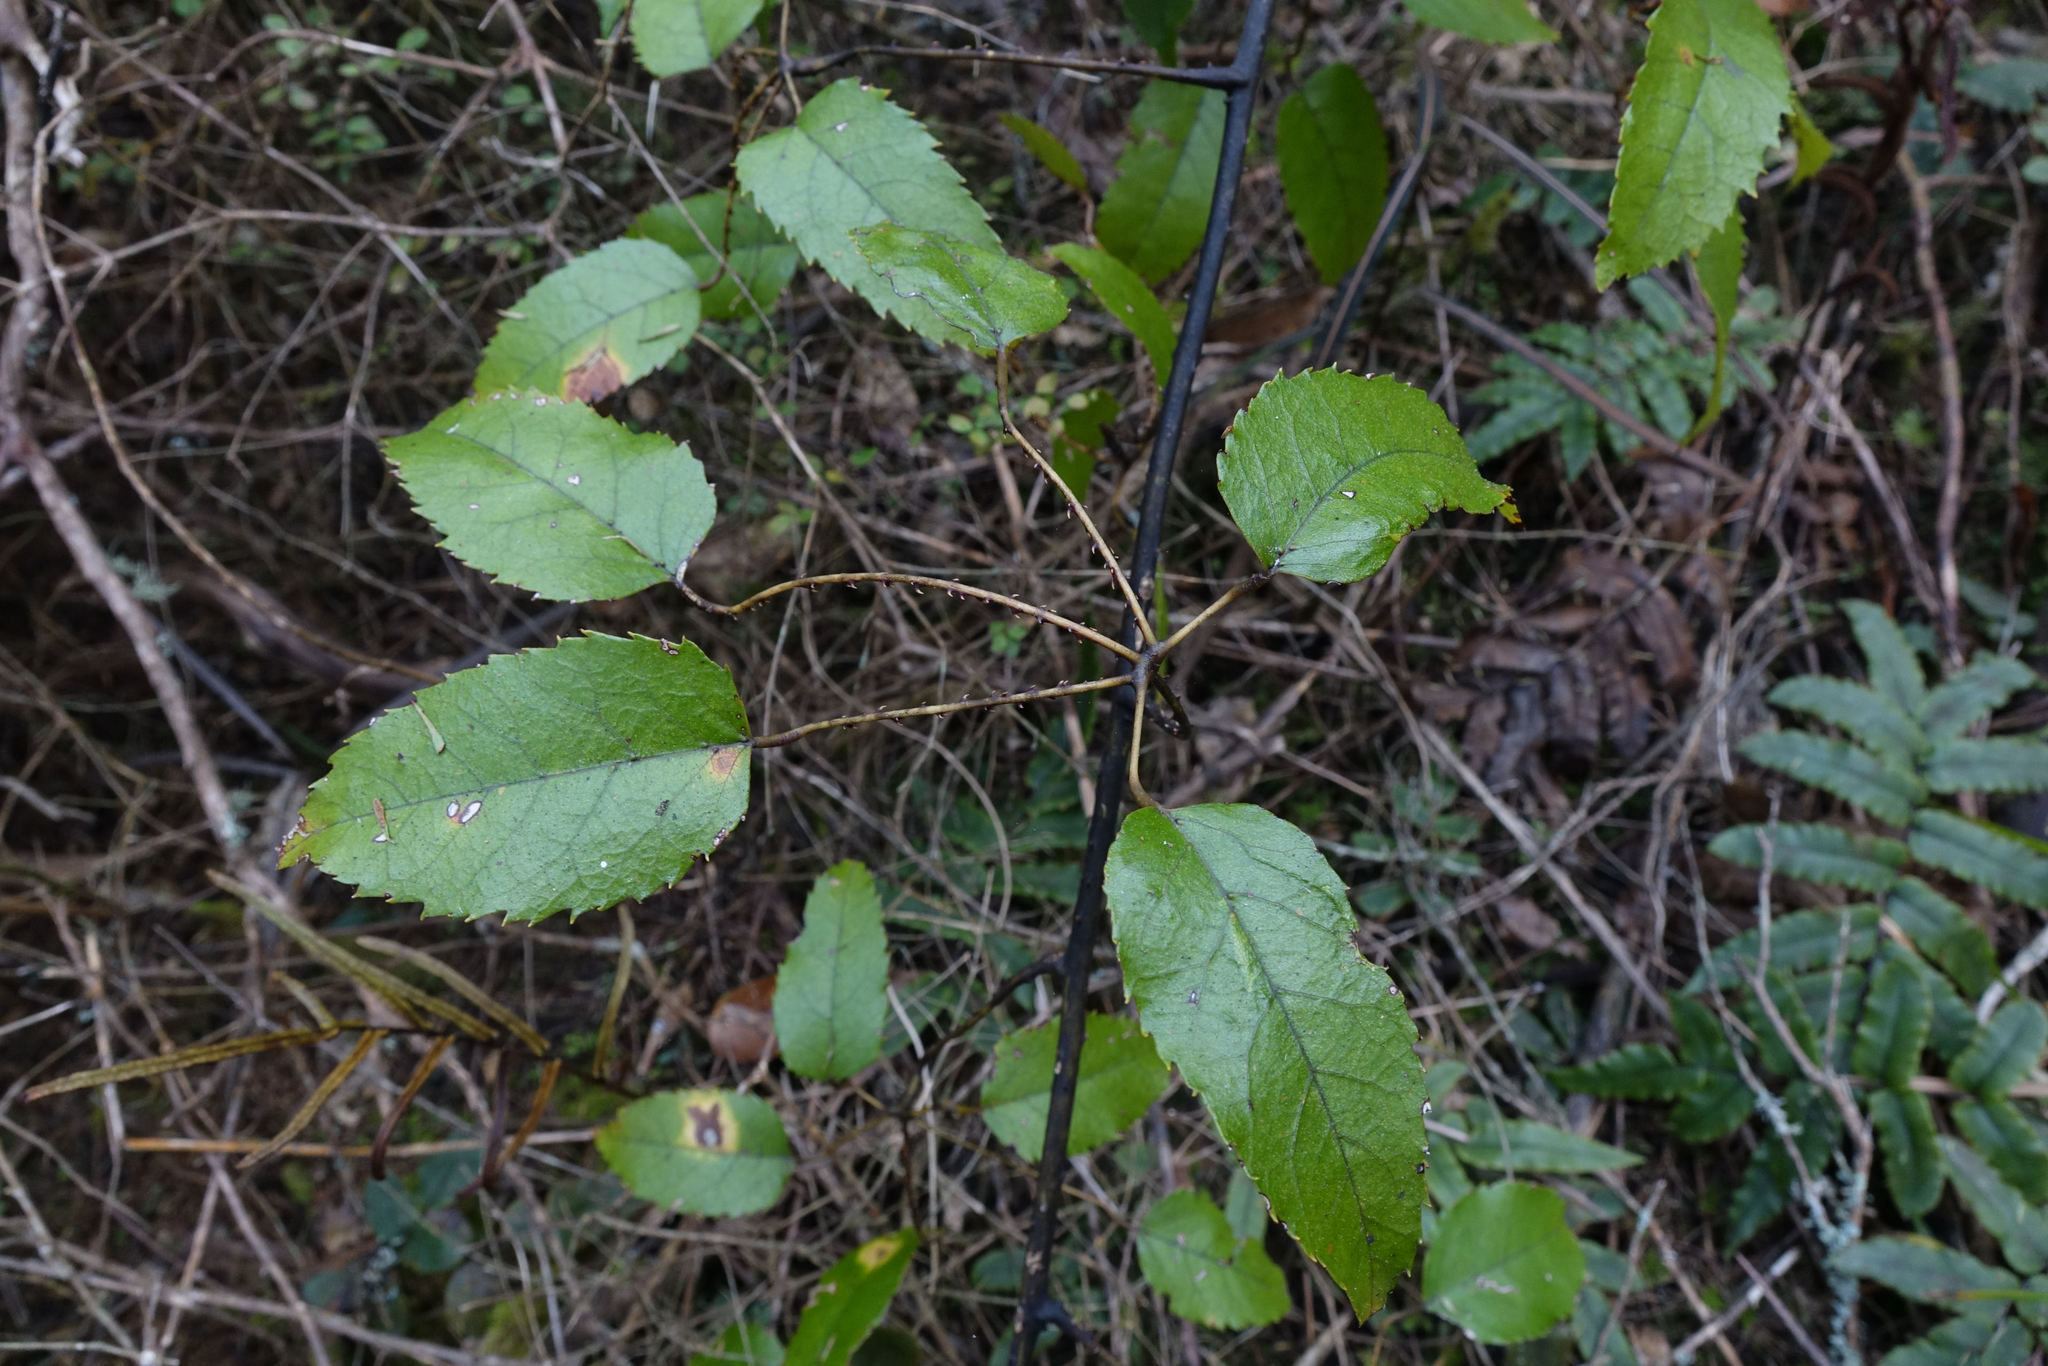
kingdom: Plantae
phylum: Tracheophyta
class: Magnoliopsida
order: Rosales
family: Rosaceae
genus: Rubus
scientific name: Rubus cissoides
